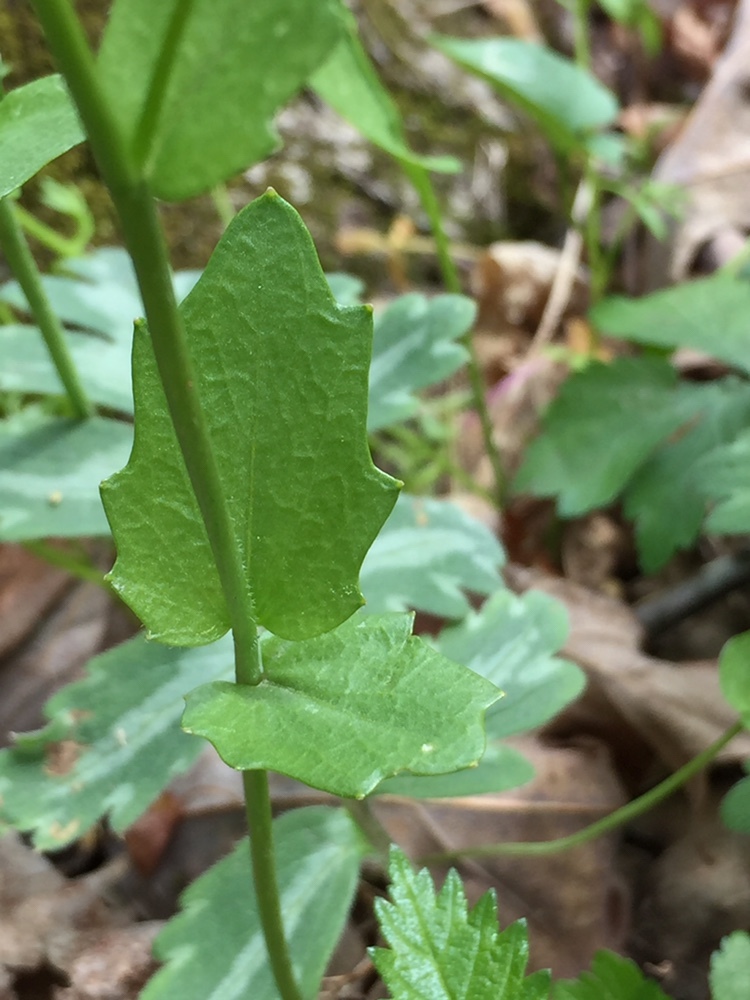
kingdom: Plantae
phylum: Tracheophyta
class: Magnoliopsida
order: Brassicales
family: Brassicaceae
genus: Cardamine
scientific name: Cardamine douglassii
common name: Purple cress
